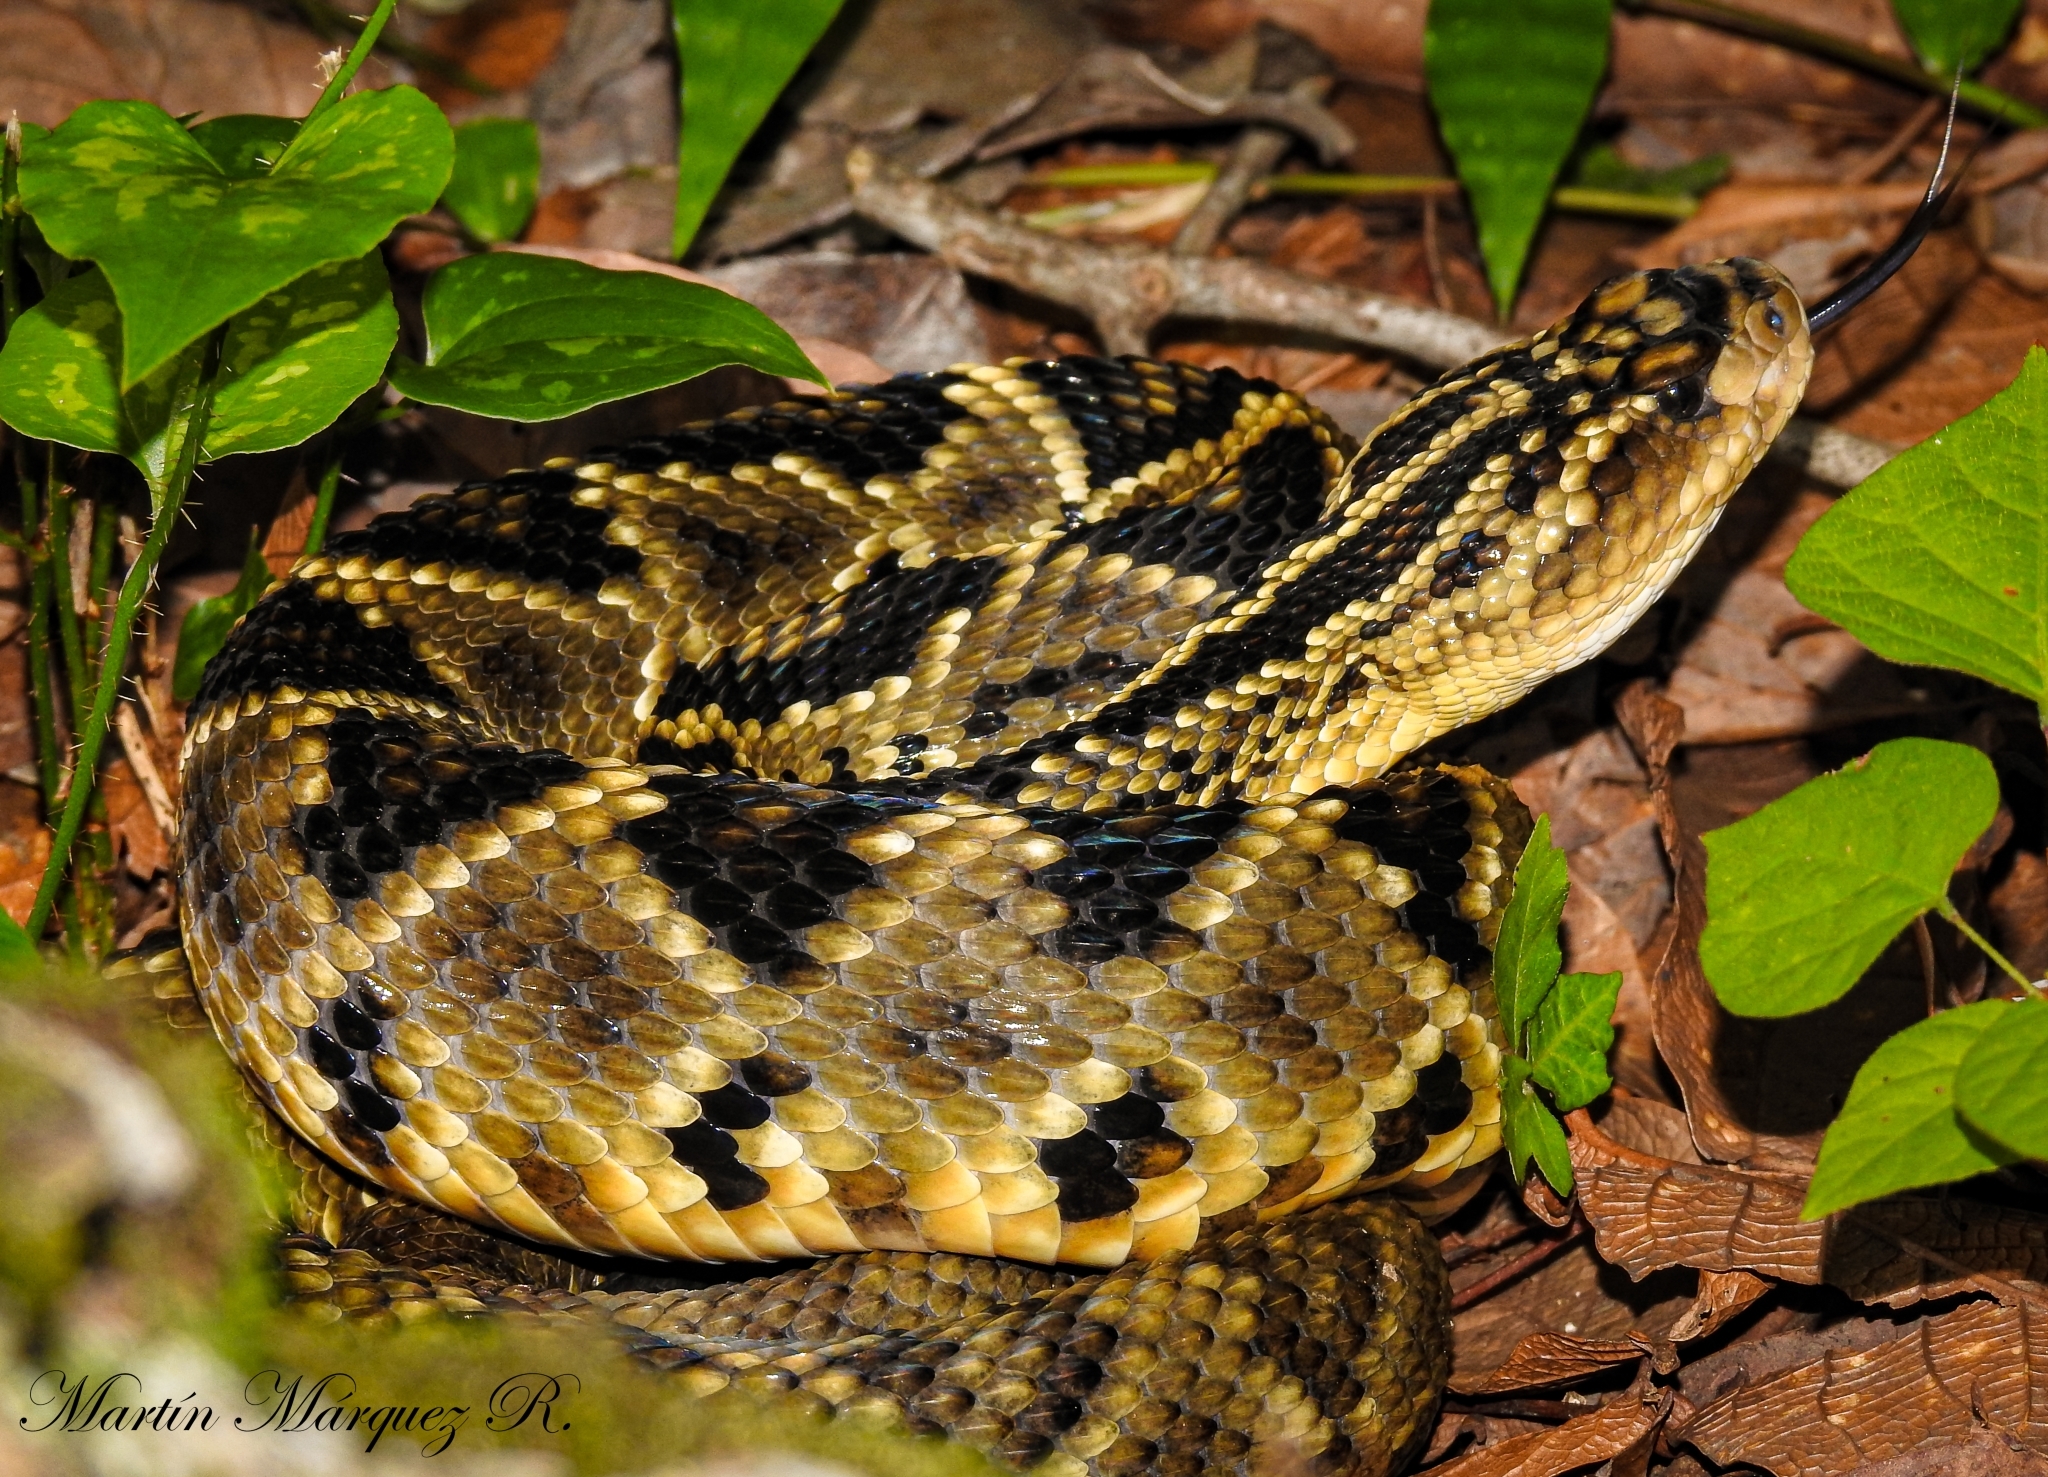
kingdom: Animalia
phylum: Chordata
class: Squamata
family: Viperidae
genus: Crotalus
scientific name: Crotalus totonacus
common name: Totonacan rattlesnake
